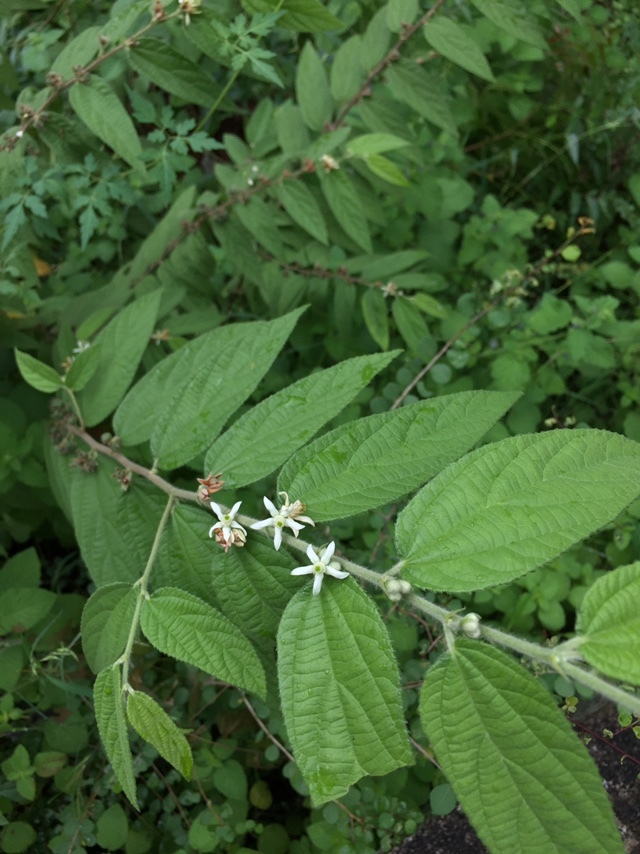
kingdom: Plantae
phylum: Tracheophyta
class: Magnoliopsida
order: Malvales
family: Malvaceae
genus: Grewia
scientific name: Grewia hirsuta
